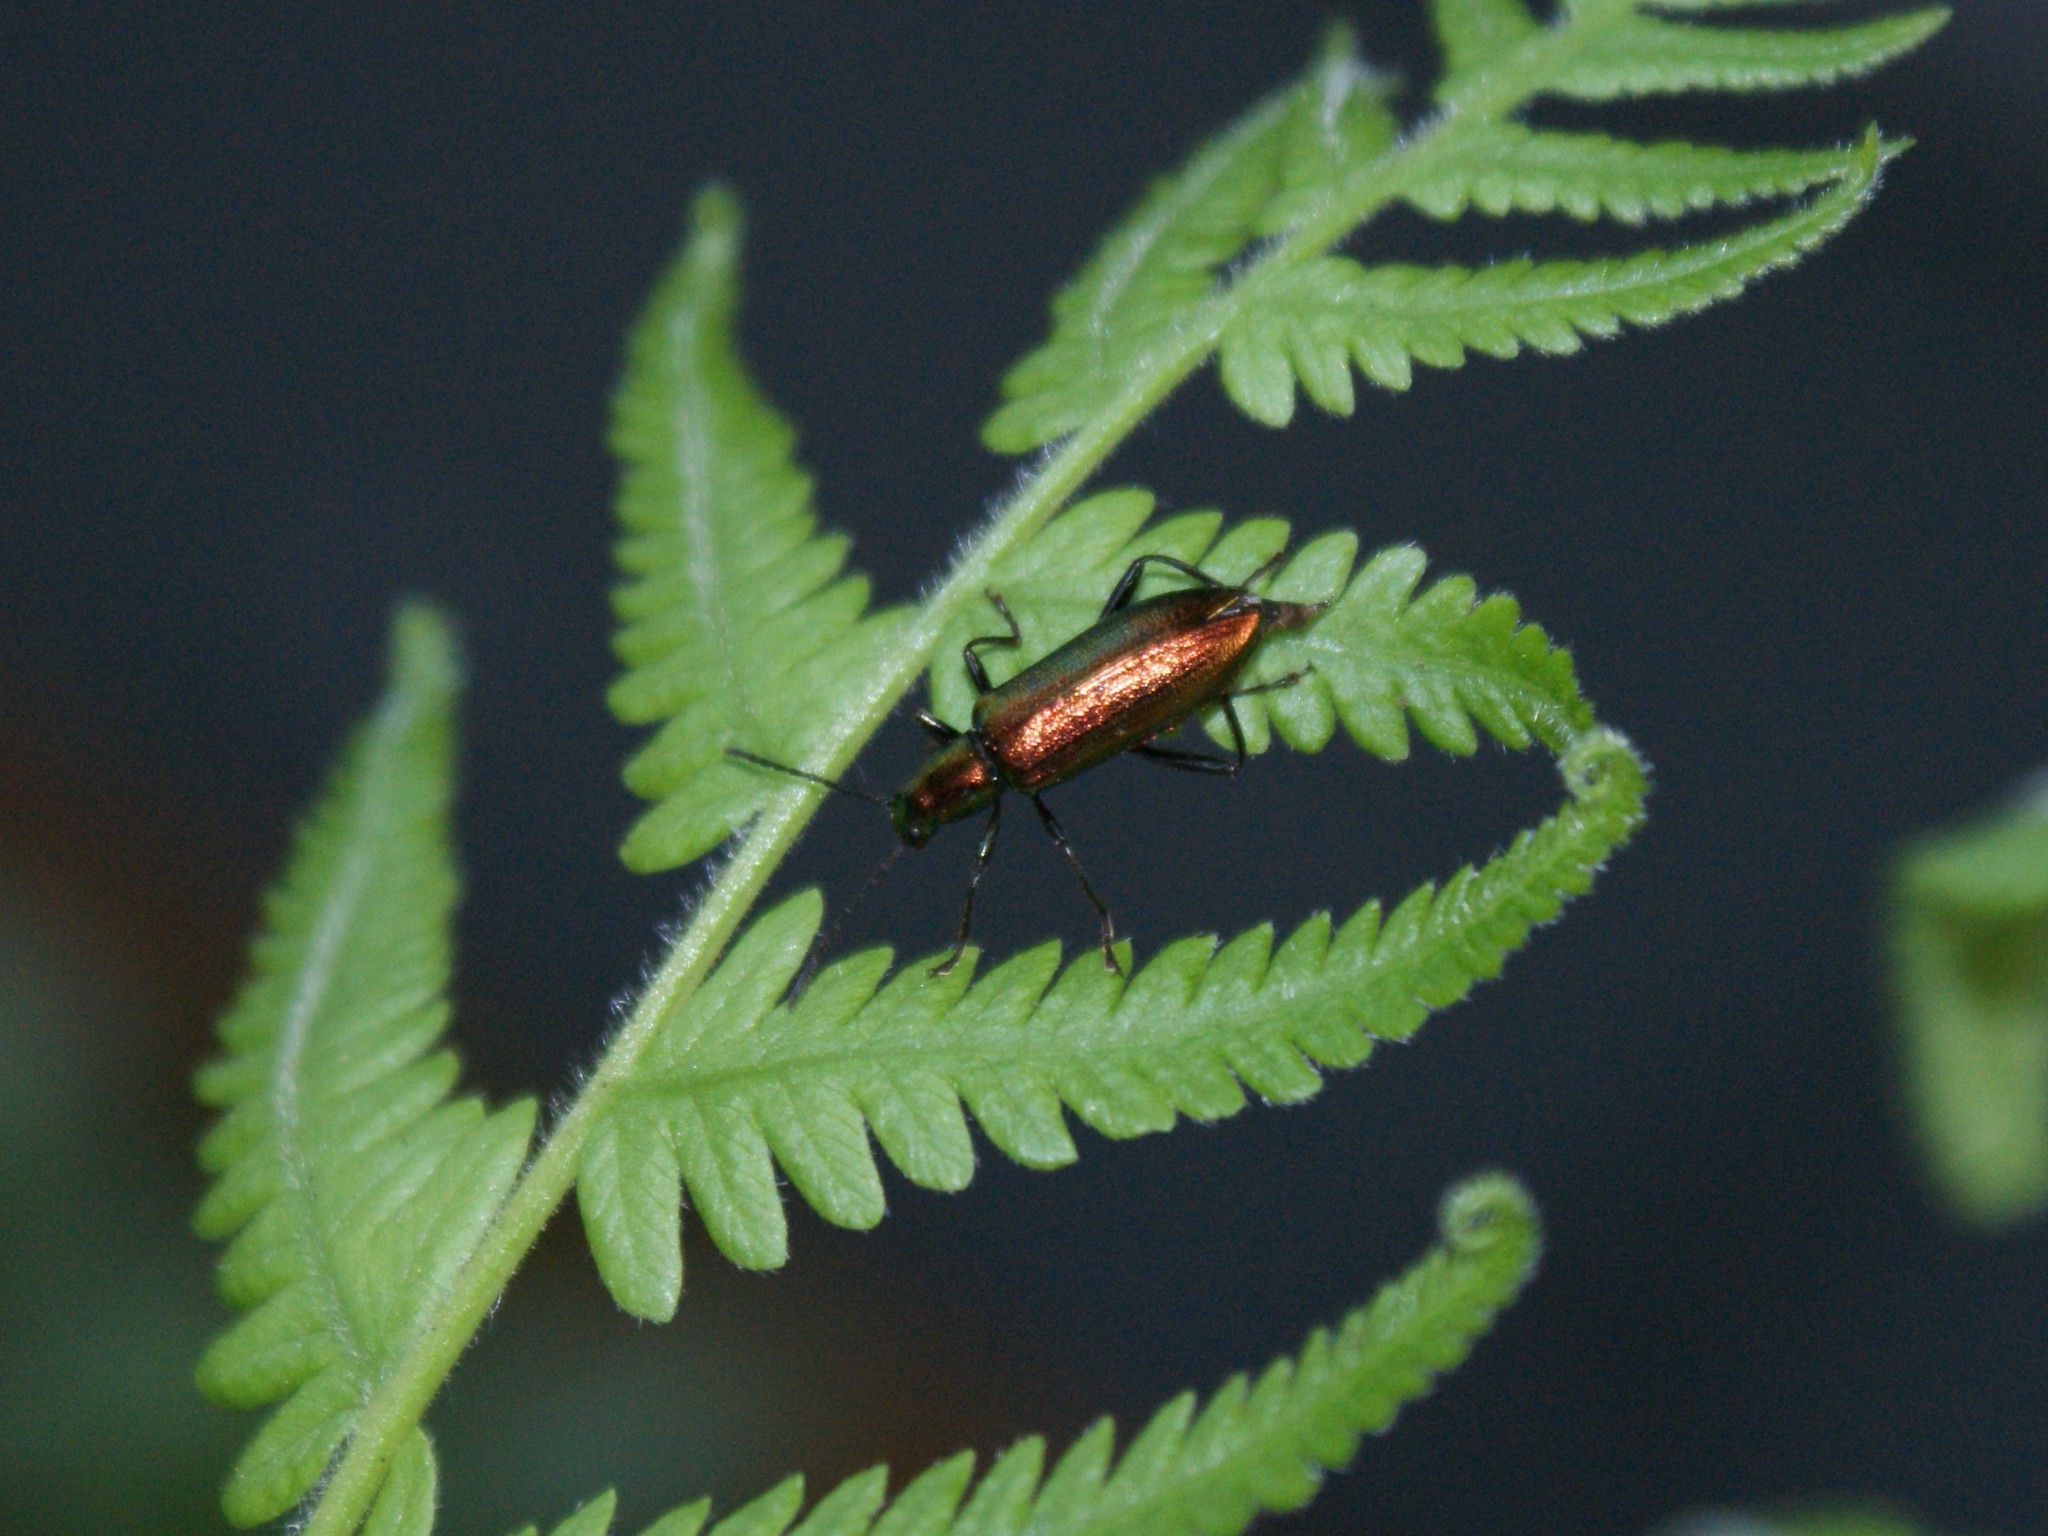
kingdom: Animalia
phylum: Arthropoda
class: Insecta
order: Coleoptera
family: Tenebrionidae
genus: Arthromacra
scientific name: Arthromacra aenea
